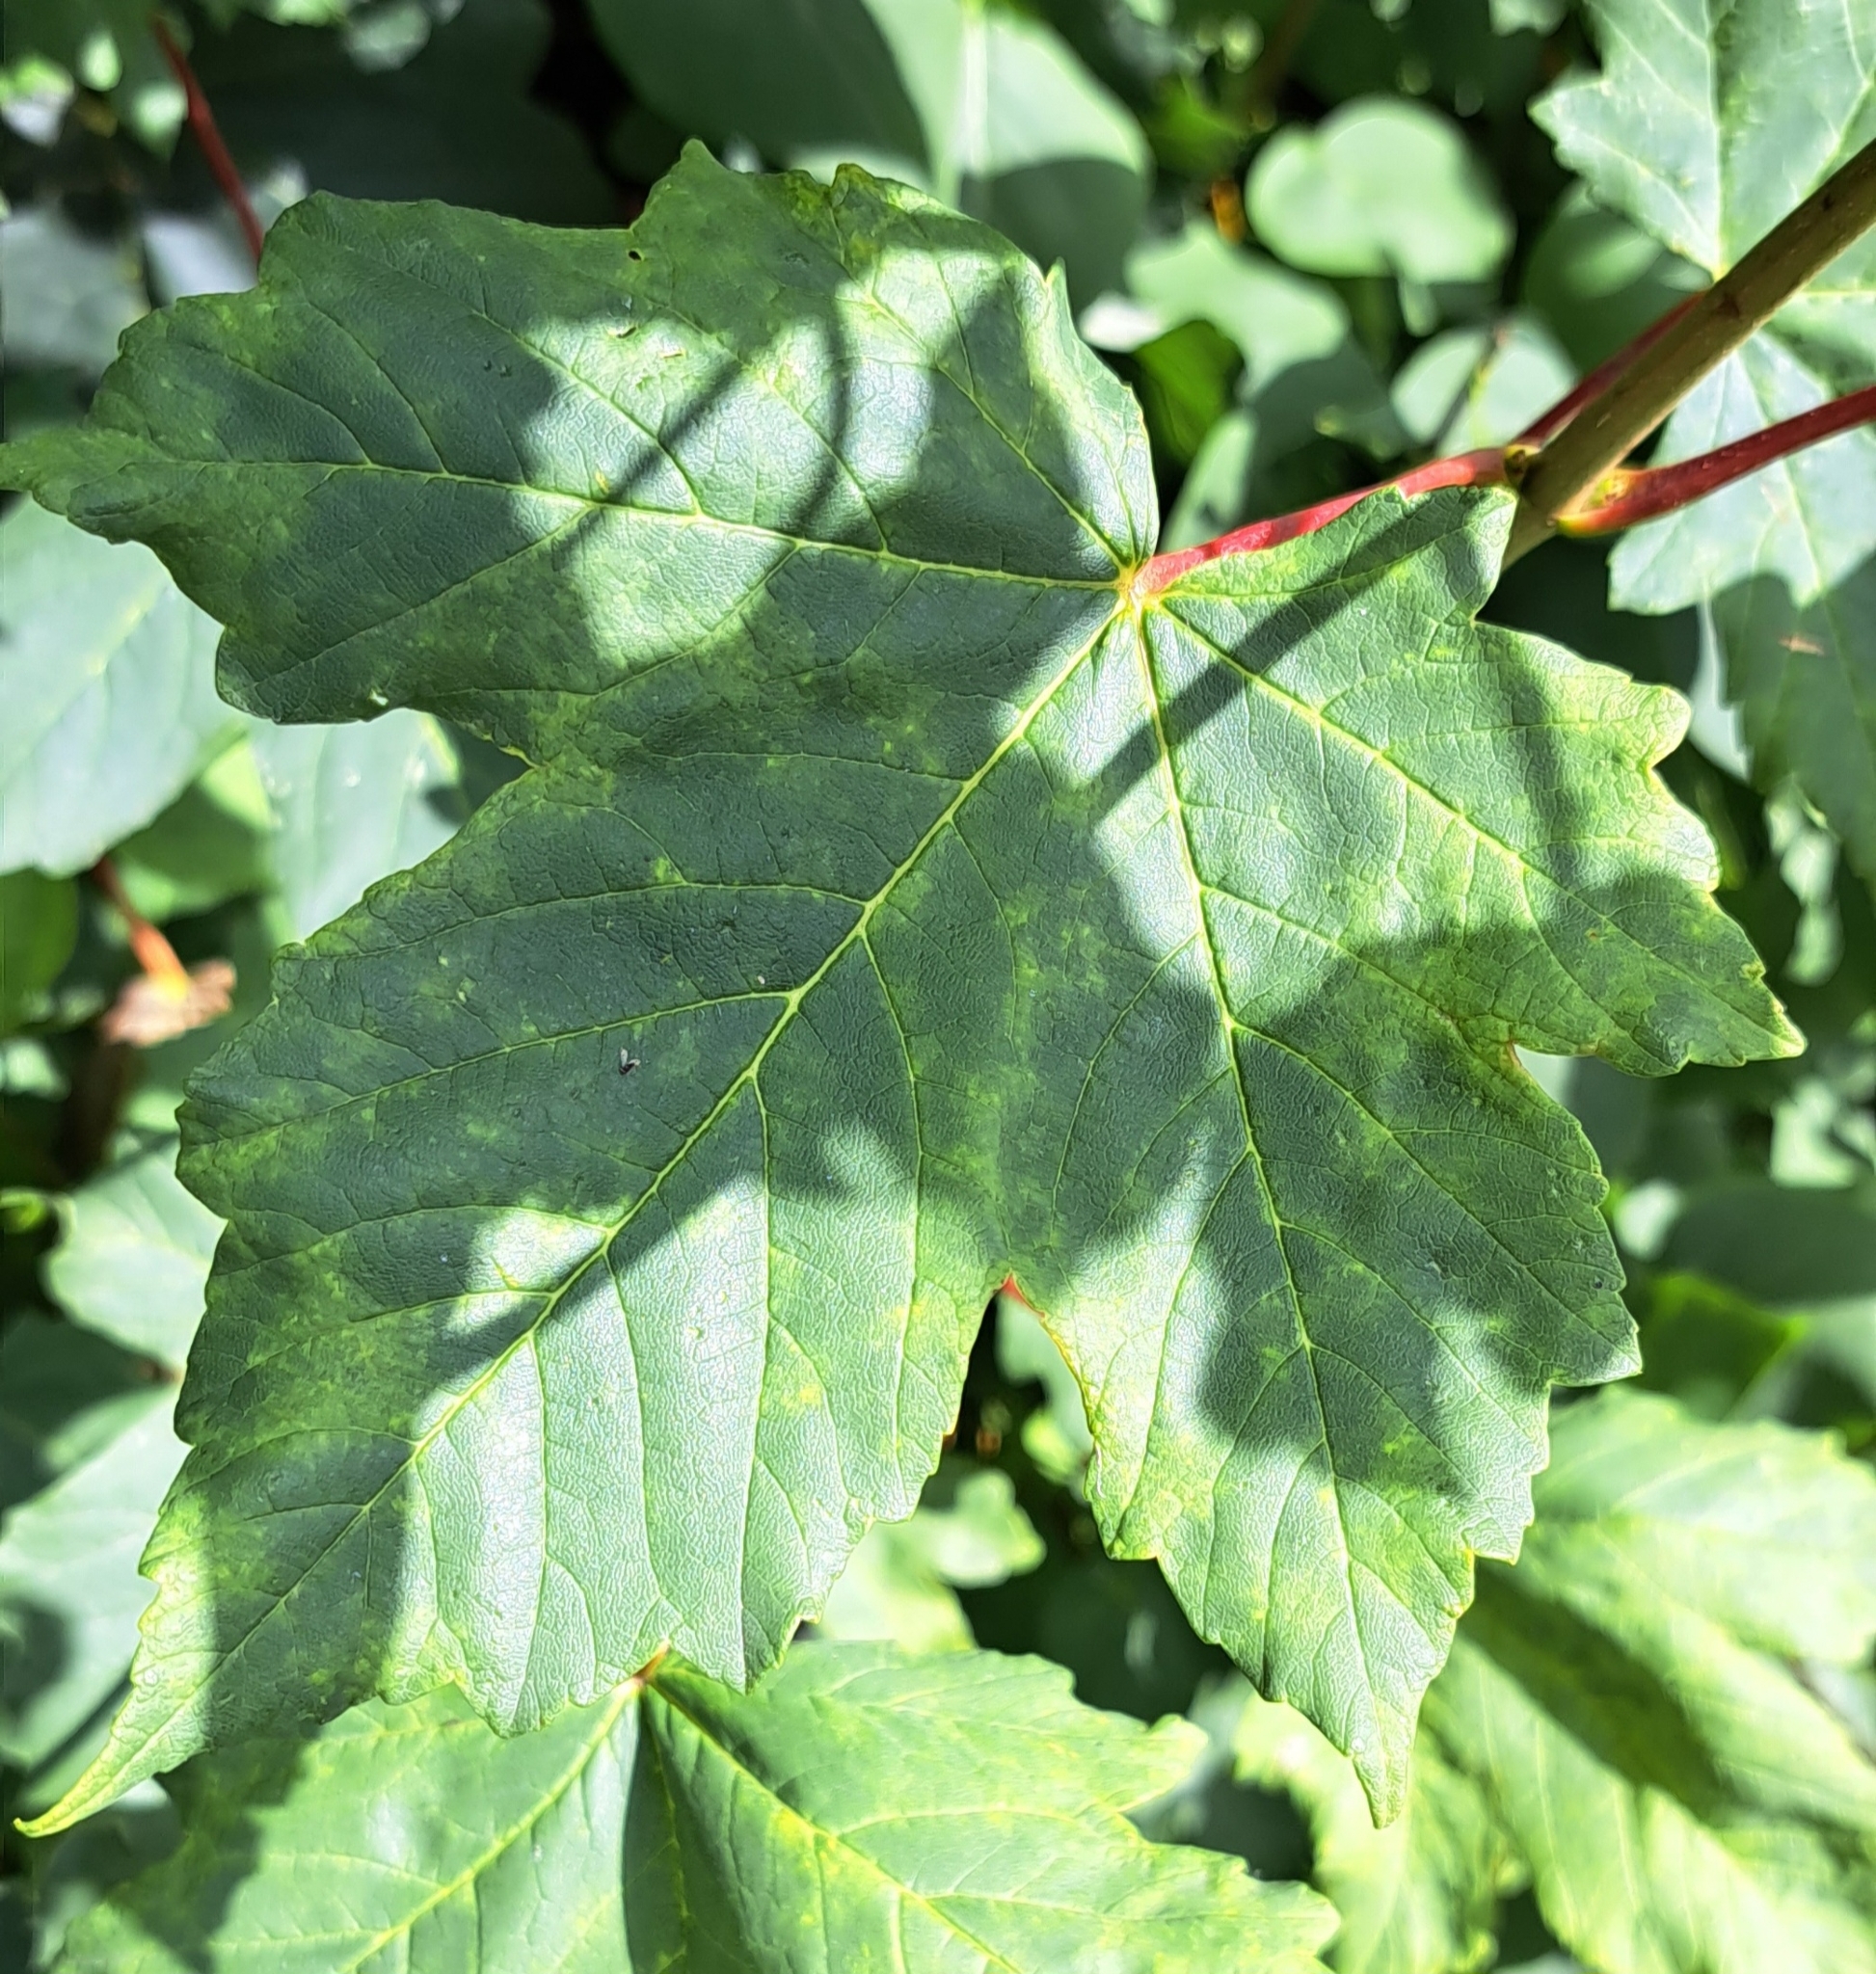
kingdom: Plantae
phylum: Tracheophyta
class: Magnoliopsida
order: Sapindales
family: Sapindaceae
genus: Acer
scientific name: Acer pseudoplatanus
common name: Sycamore
